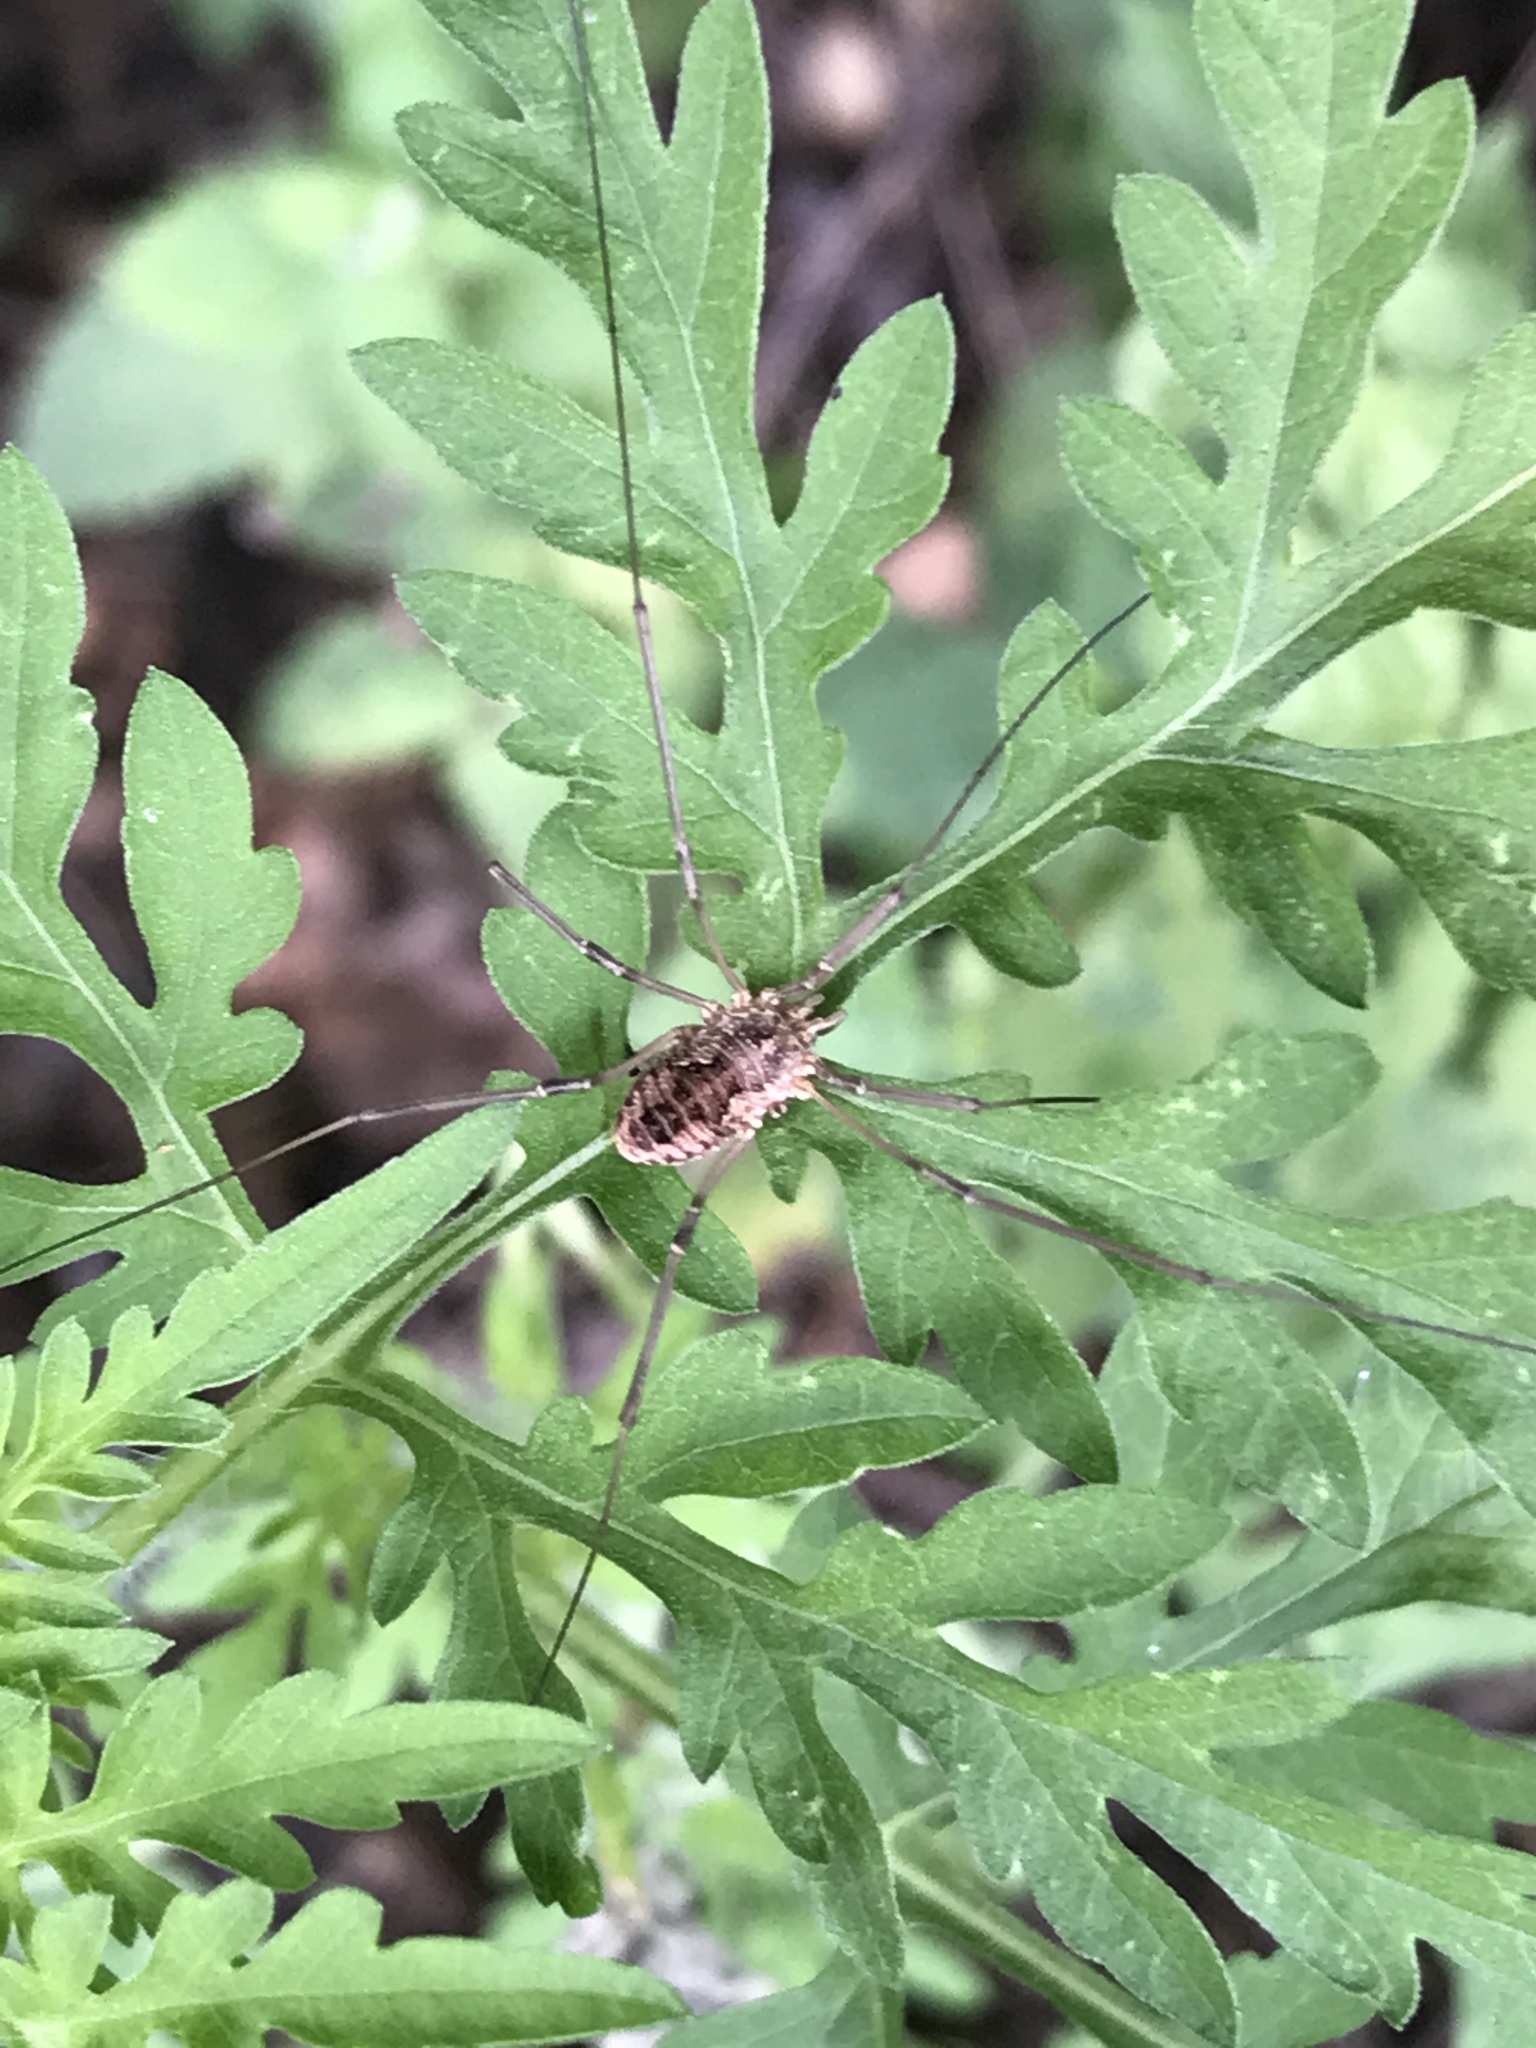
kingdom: Animalia
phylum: Arthropoda
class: Arachnida
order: Opiliones
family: Phalangiidae
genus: Phalangium
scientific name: Phalangium opilio
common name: Daddy longleg
